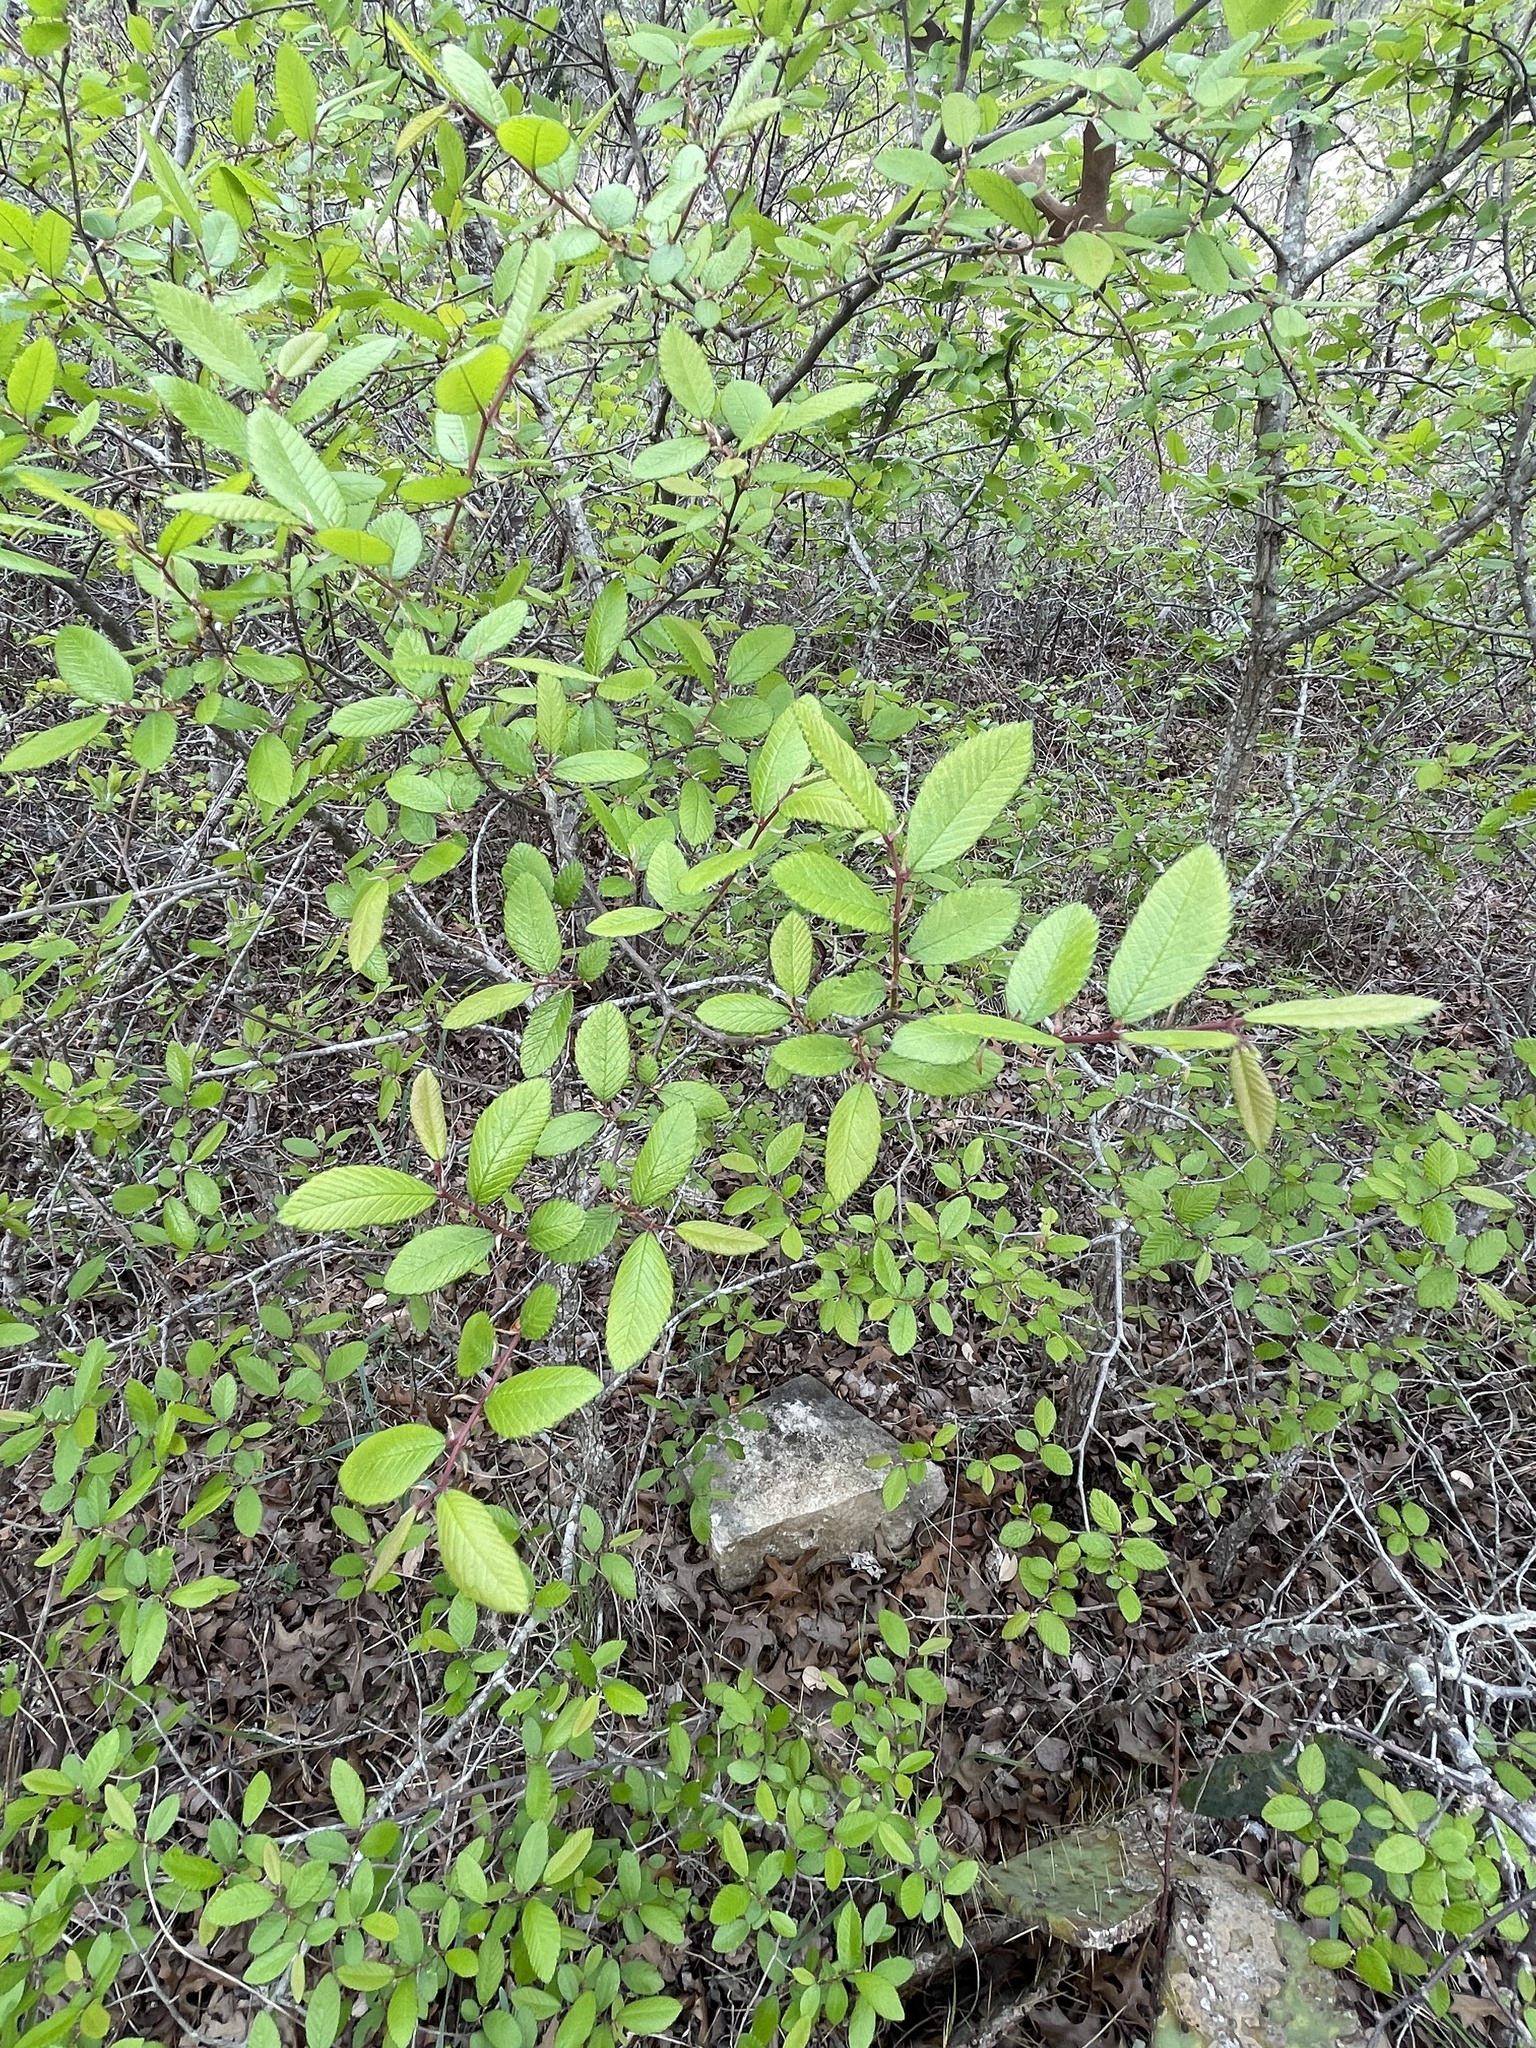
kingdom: Plantae
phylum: Tracheophyta
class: Magnoliopsida
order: Rosales
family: Ulmaceae
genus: Ulmus
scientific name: Ulmus crassifolia
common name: Basket elm
